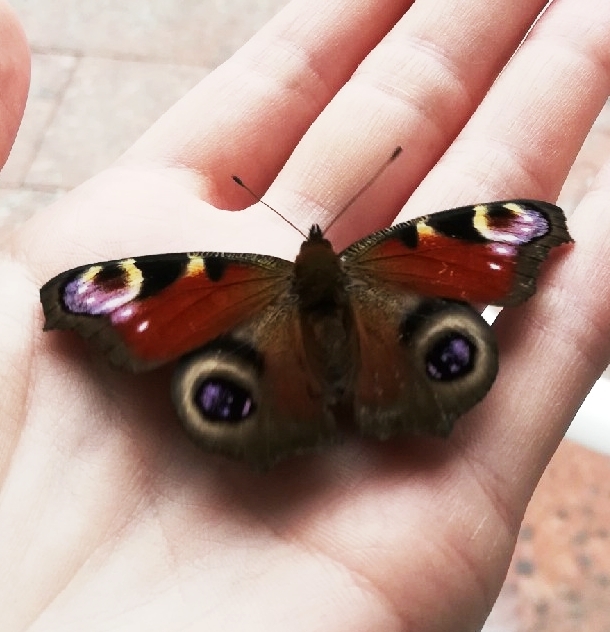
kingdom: Animalia
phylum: Arthropoda
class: Insecta
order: Lepidoptera
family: Nymphalidae
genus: Aglais
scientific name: Aglais io
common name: Peacock
